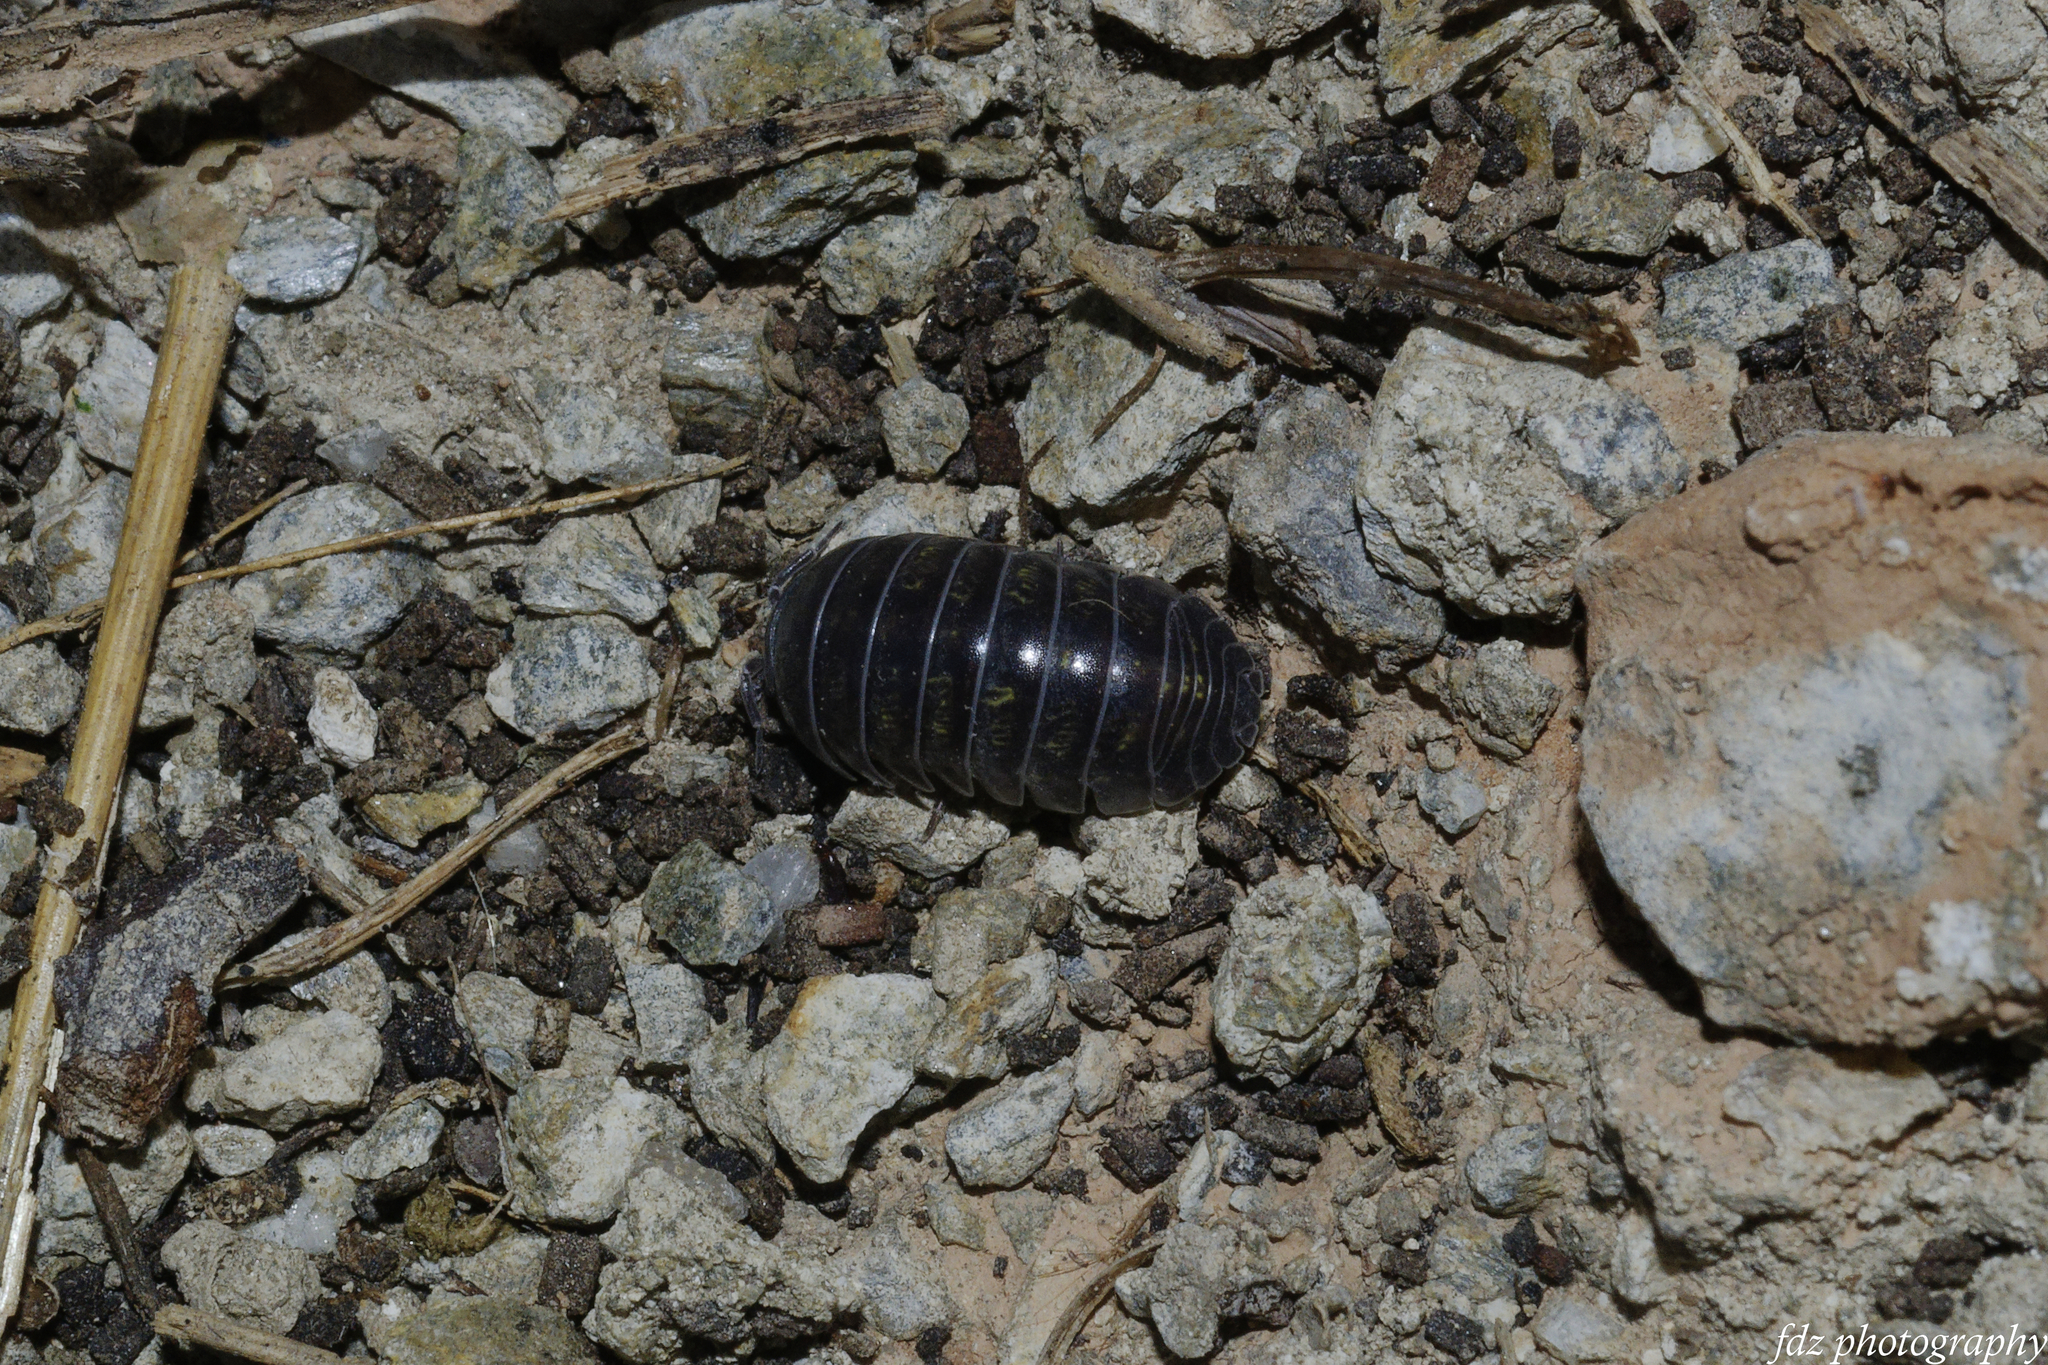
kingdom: Animalia
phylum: Arthropoda
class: Malacostraca
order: Isopoda
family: Armadillidiidae
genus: Armadillidium
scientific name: Armadillidium vulgare
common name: Common pill woodlouse
